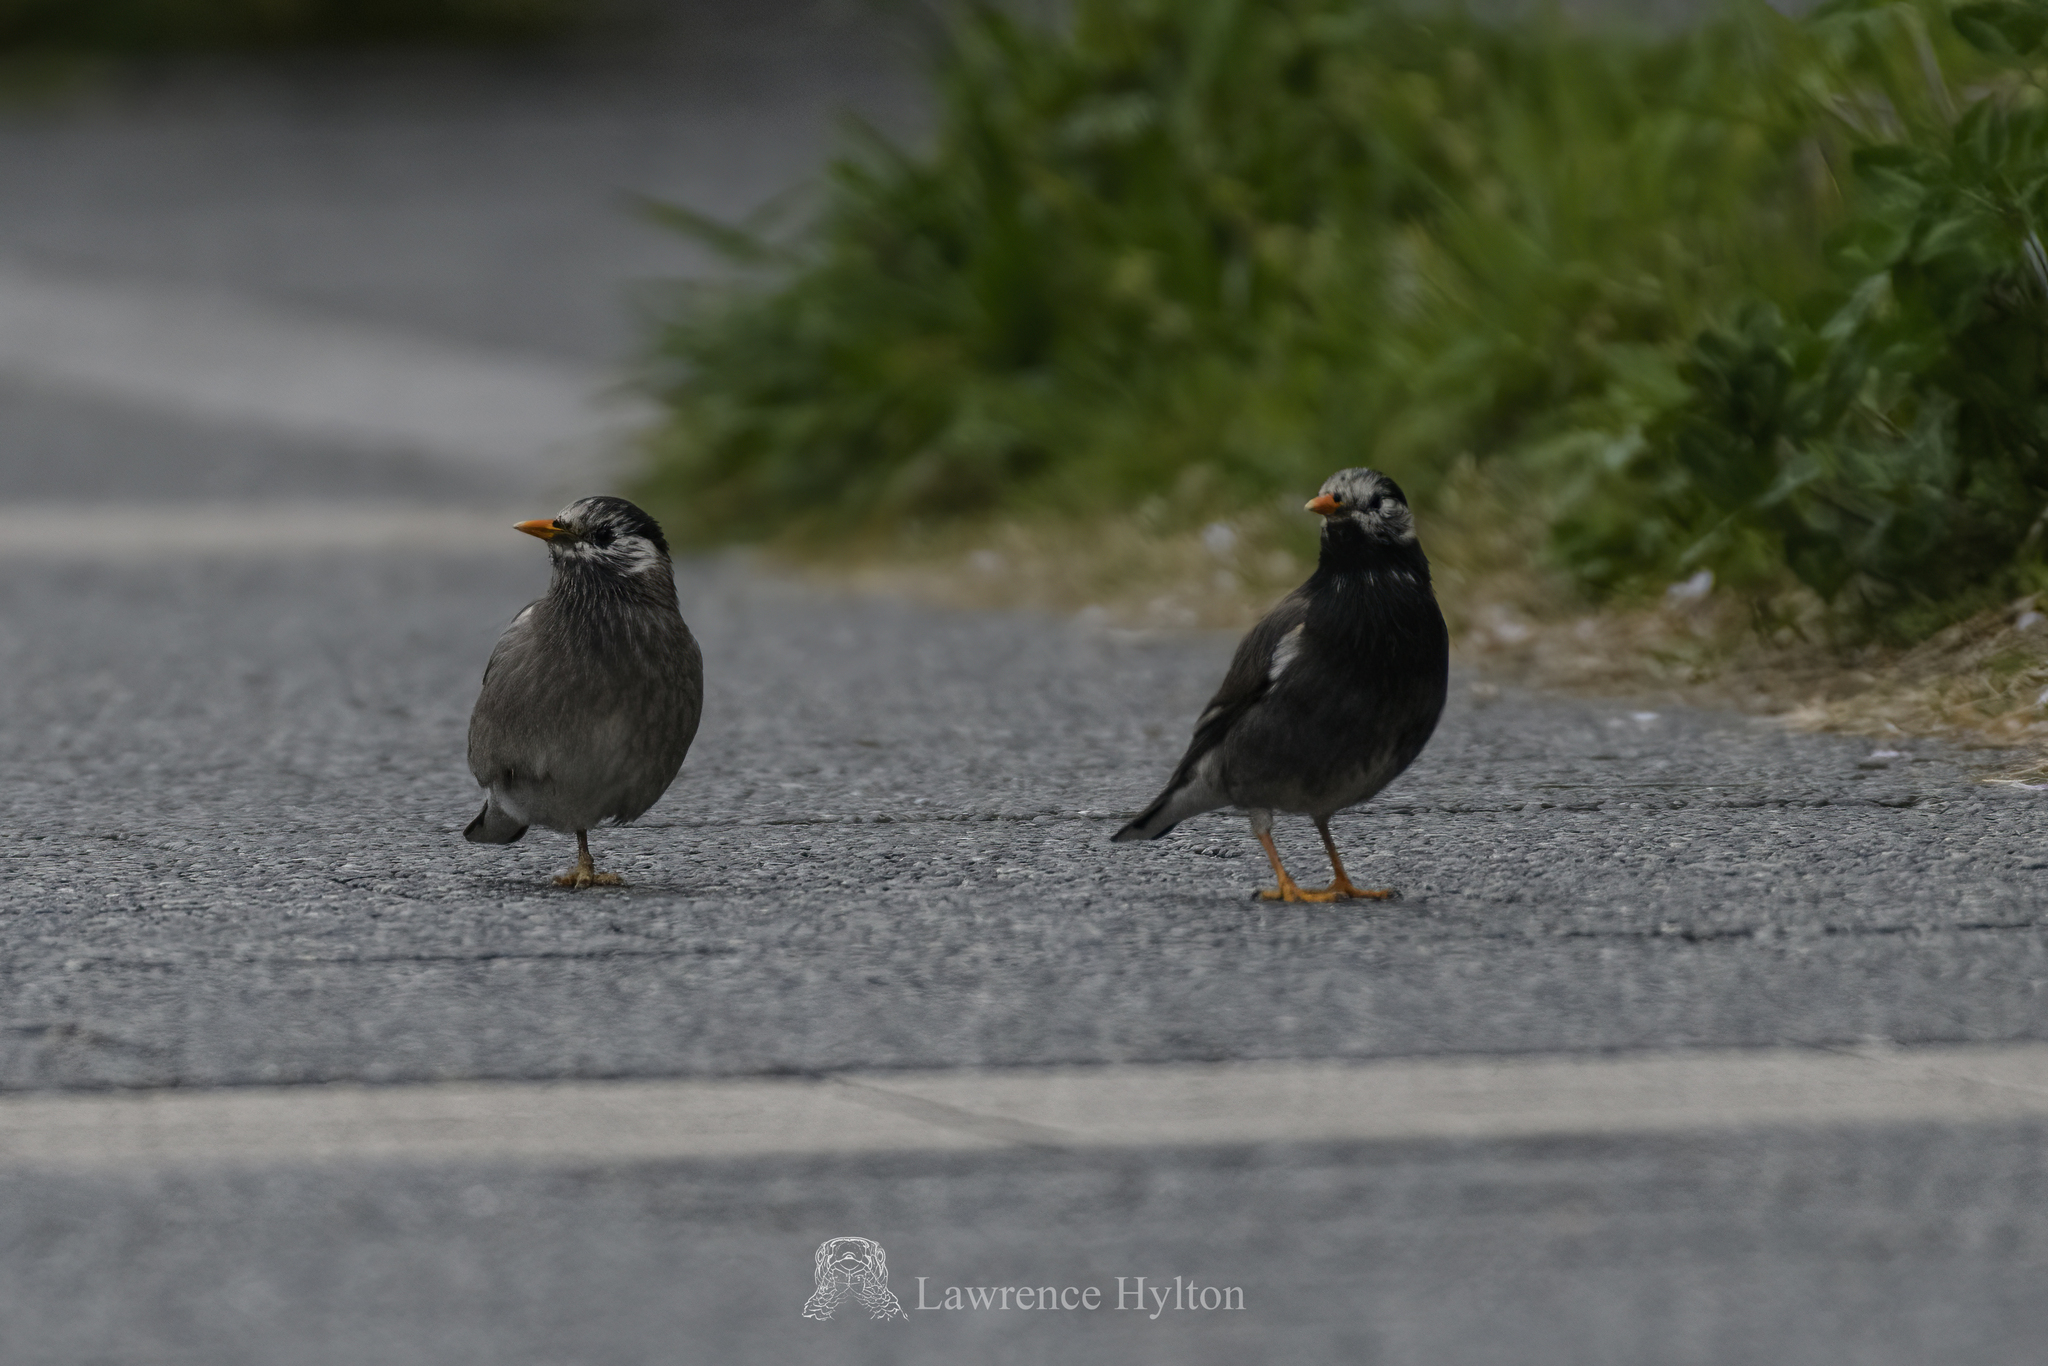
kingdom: Animalia
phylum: Chordata
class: Aves
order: Passeriformes
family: Sturnidae
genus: Spodiopsar
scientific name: Spodiopsar cineraceus
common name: White-cheeked starling
